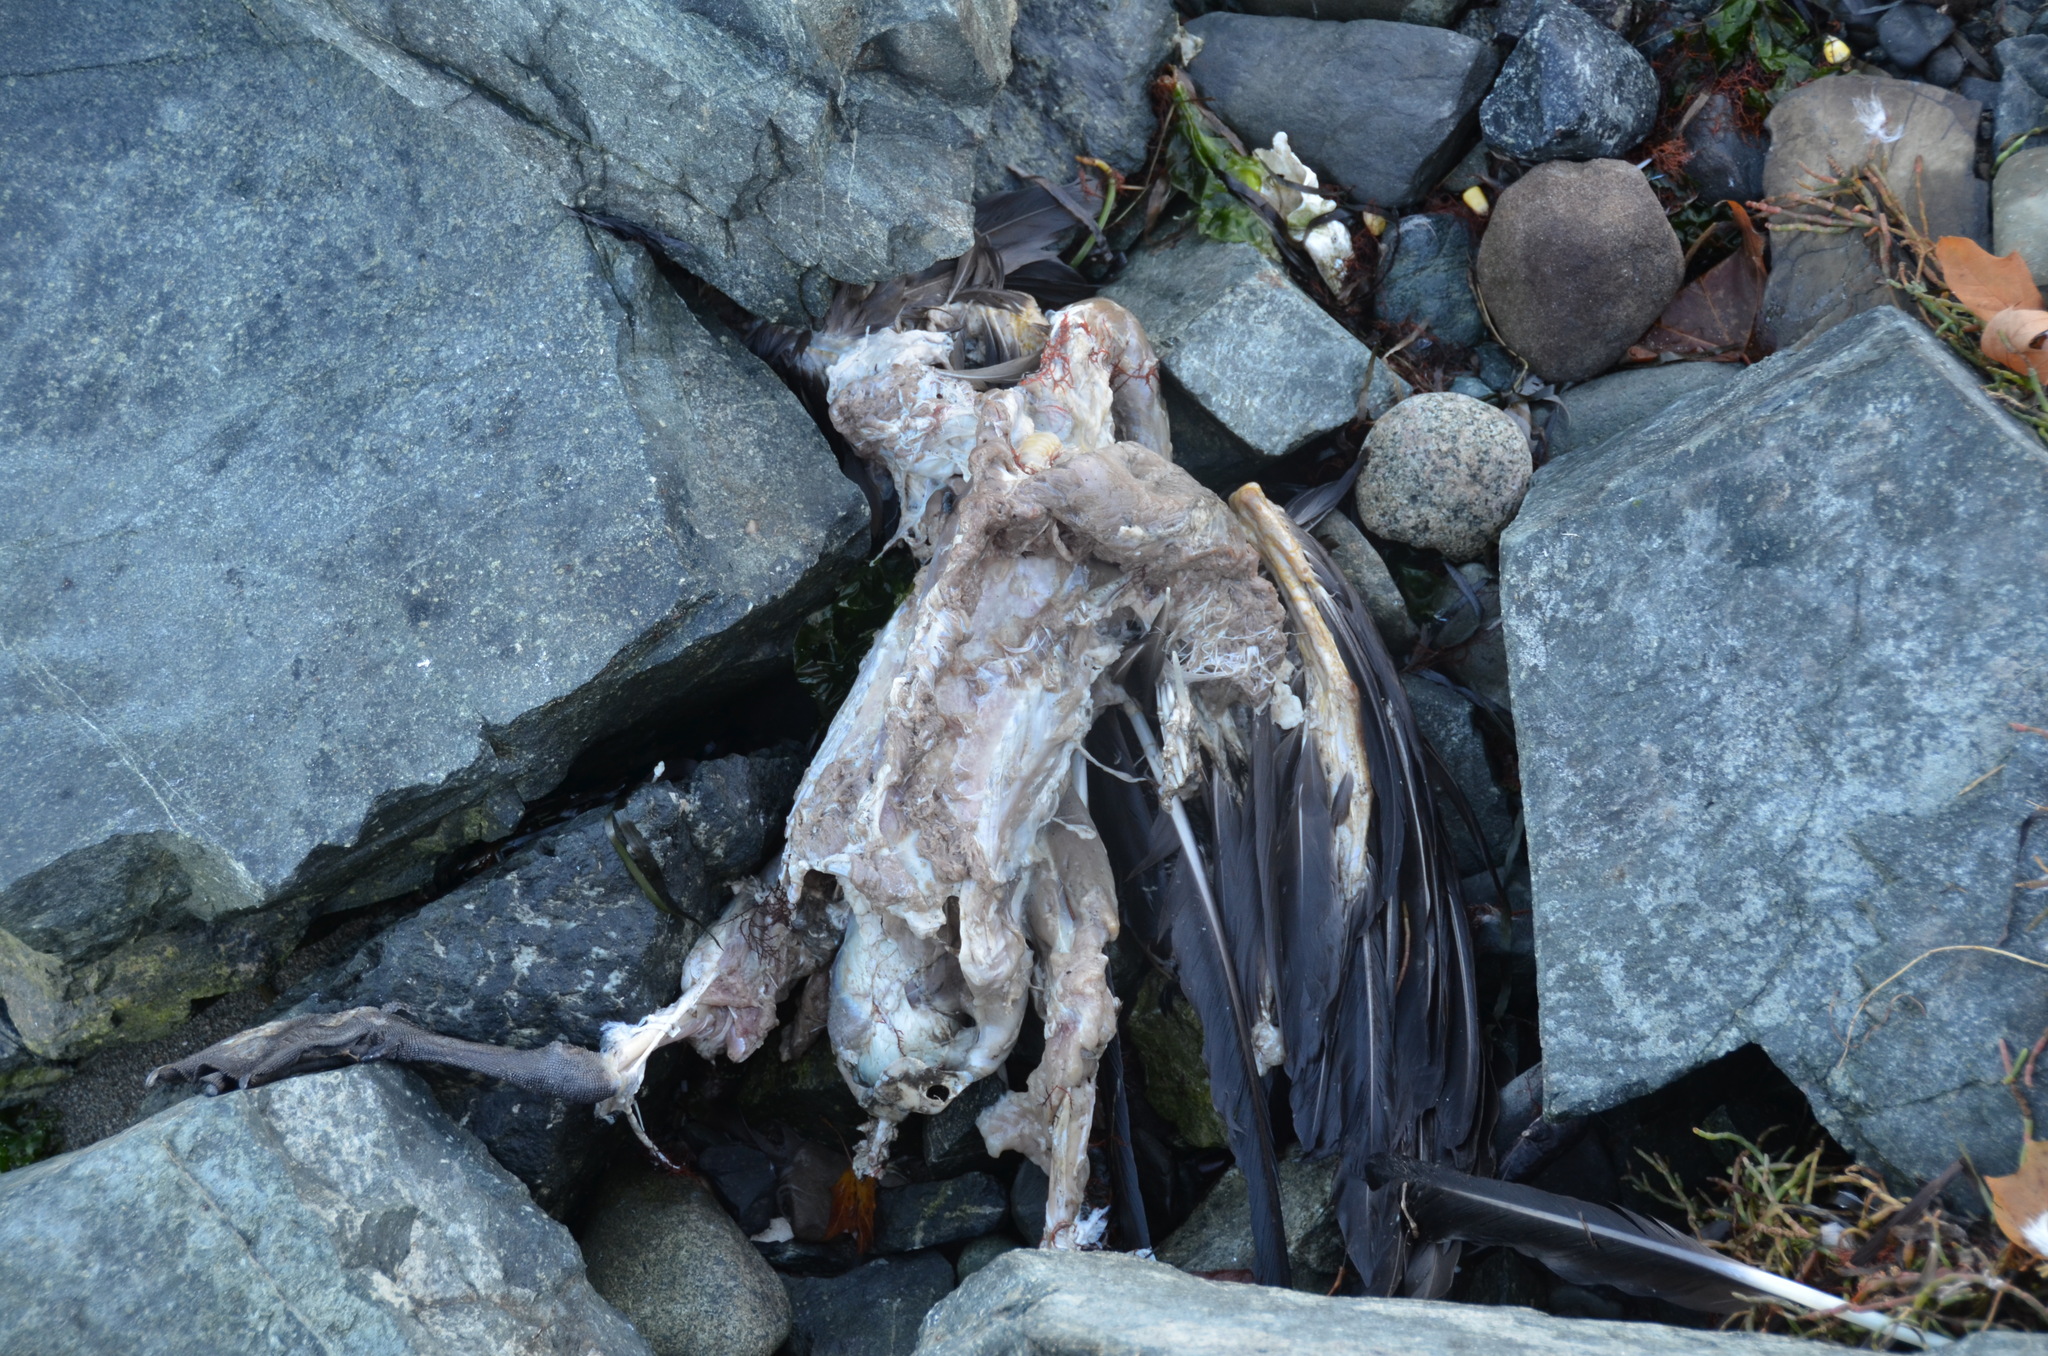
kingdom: Animalia
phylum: Chordata
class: Aves
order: Anseriformes
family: Anatidae
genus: Branta
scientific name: Branta canadensis
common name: Canada goose
